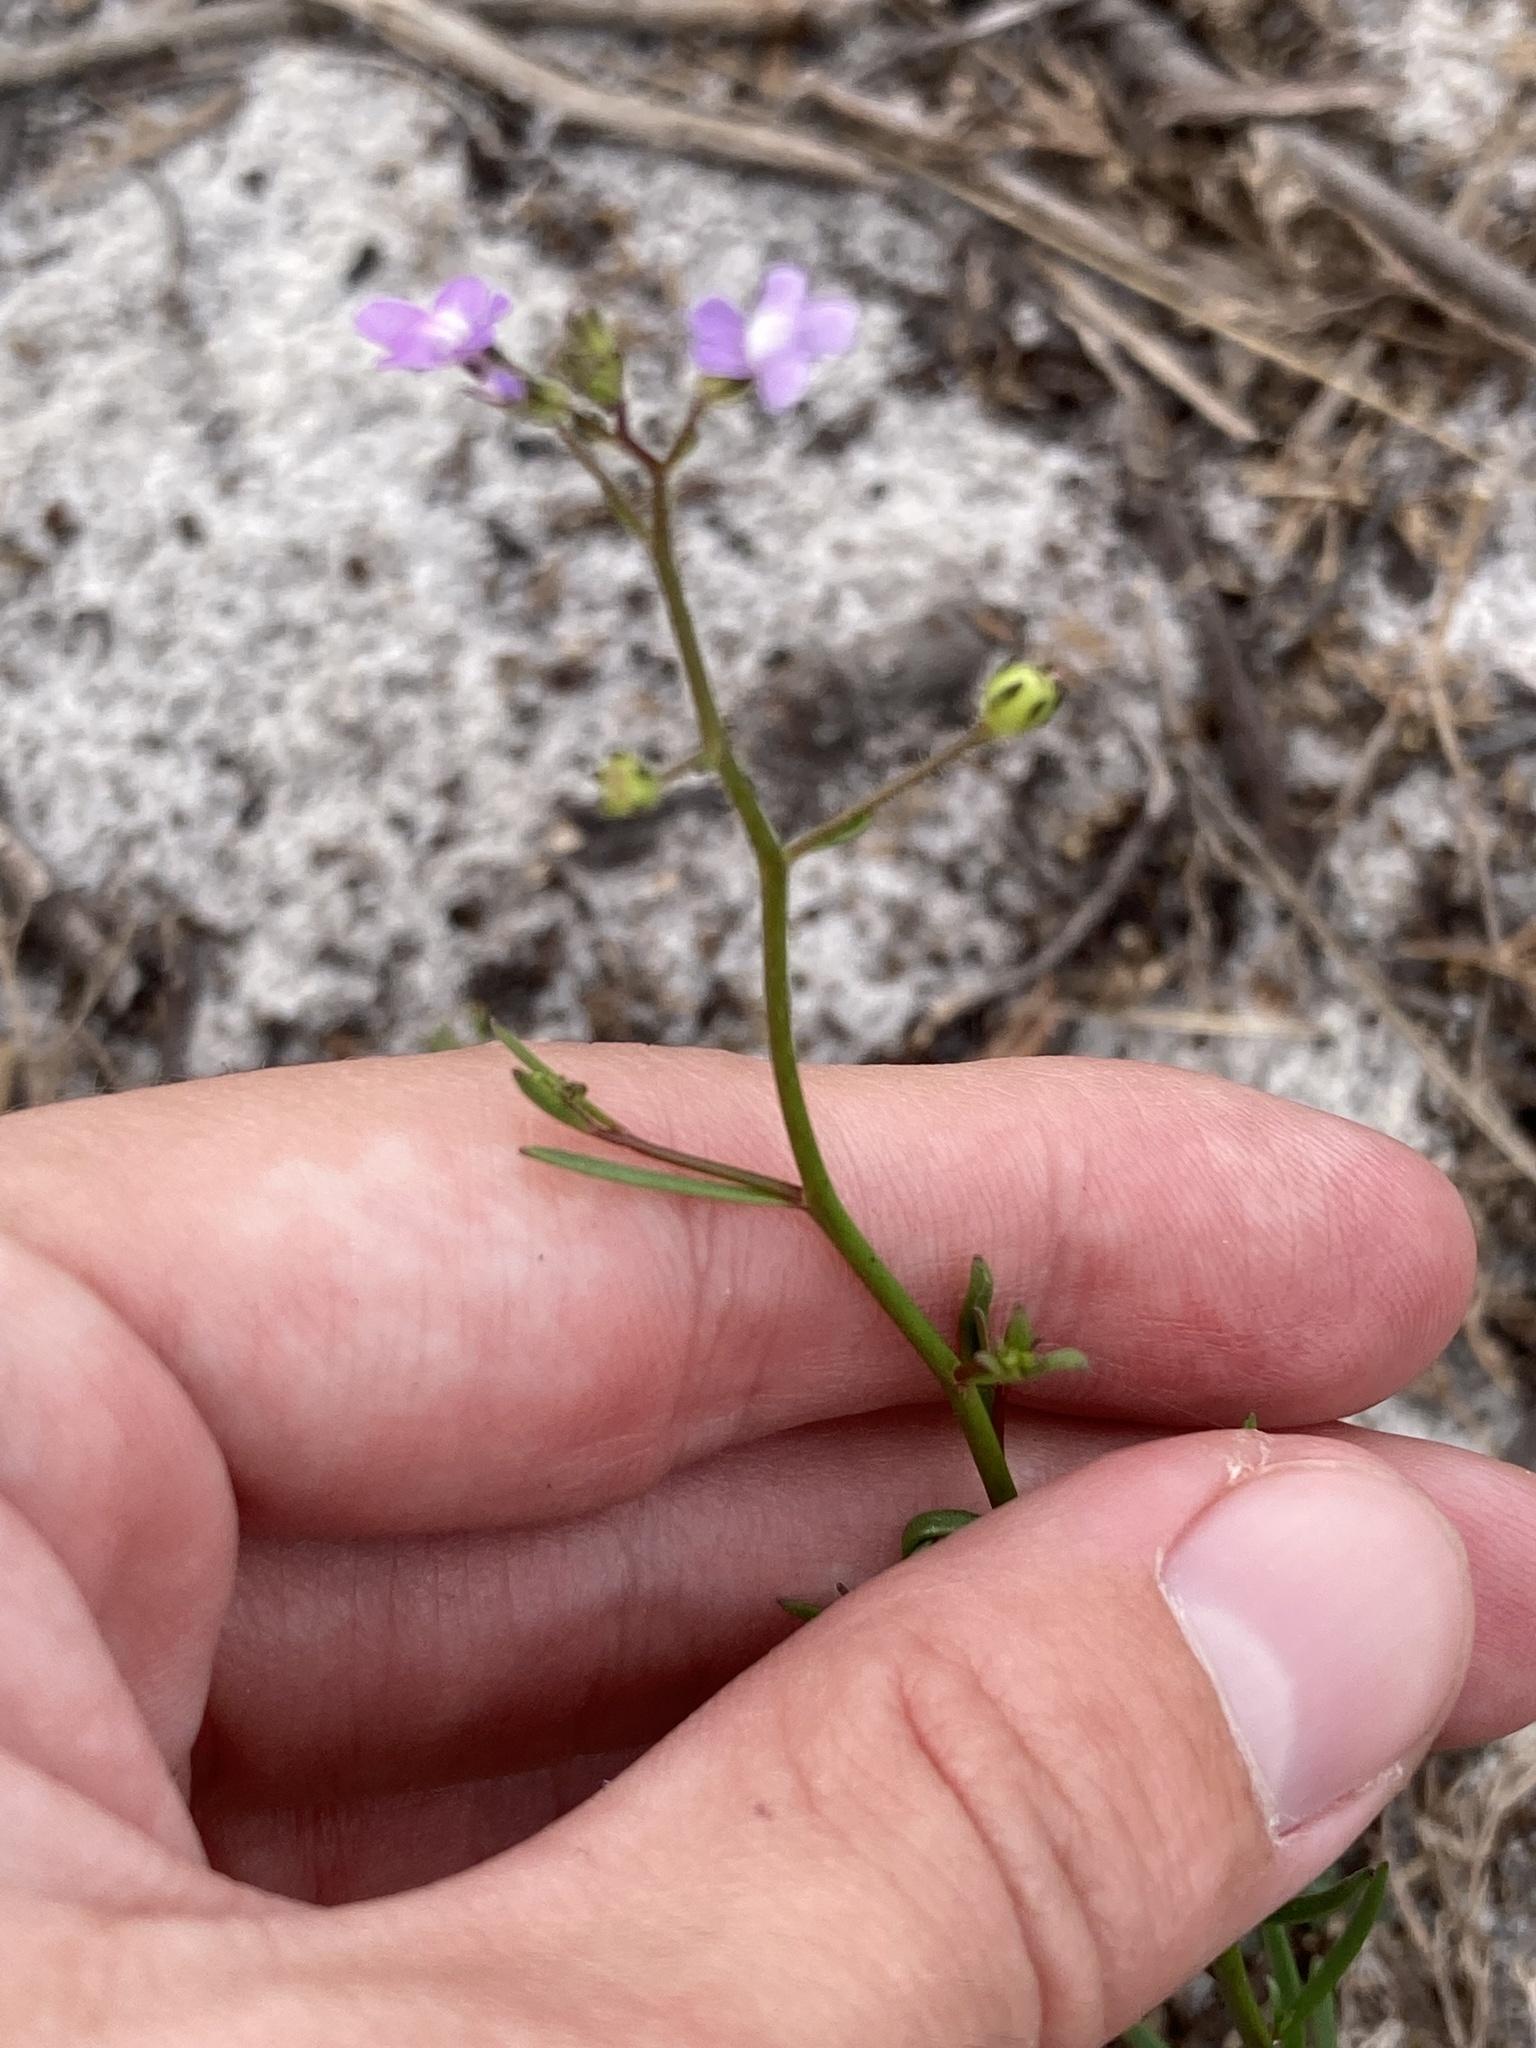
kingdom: Plantae
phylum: Tracheophyta
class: Magnoliopsida
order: Lamiales
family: Plantaginaceae
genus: Nuttallanthus
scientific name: Nuttallanthus floridanus
